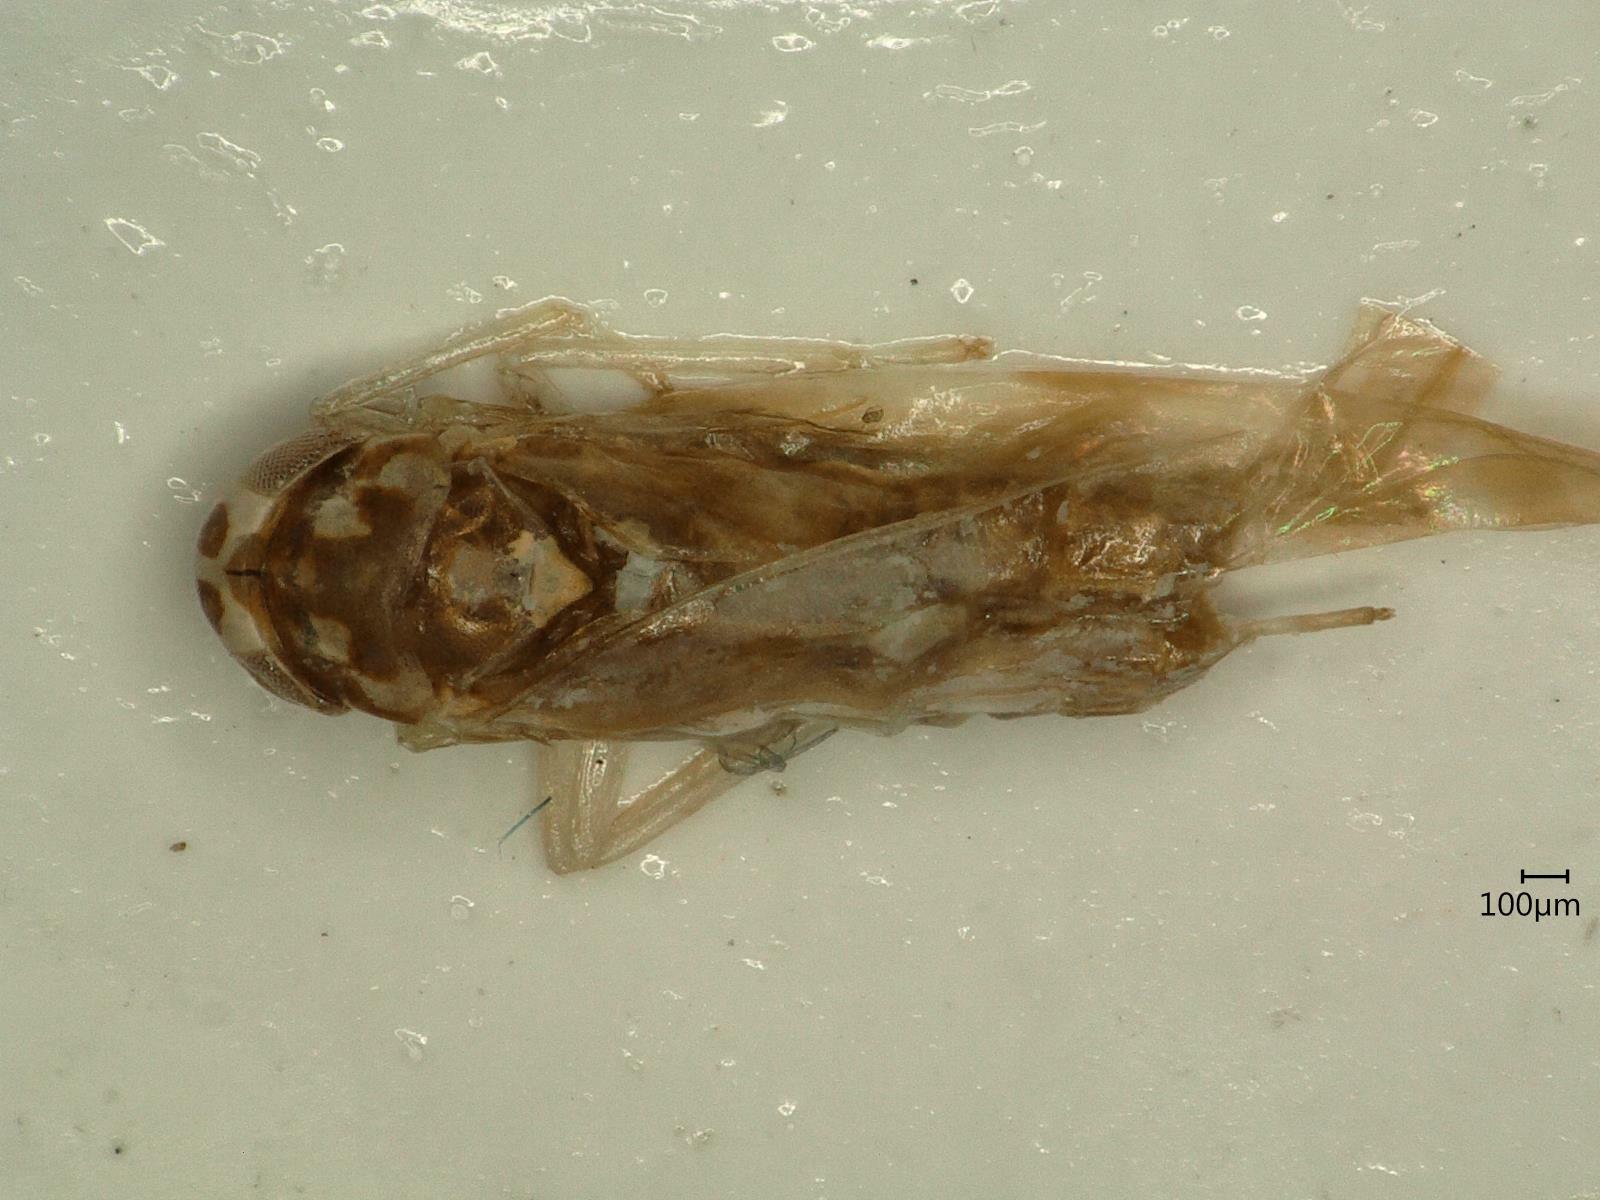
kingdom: Animalia
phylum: Arthropoda
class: Insecta
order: Hemiptera
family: Cicadellidae
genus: Eupteryx
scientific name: Eupteryx urticae
